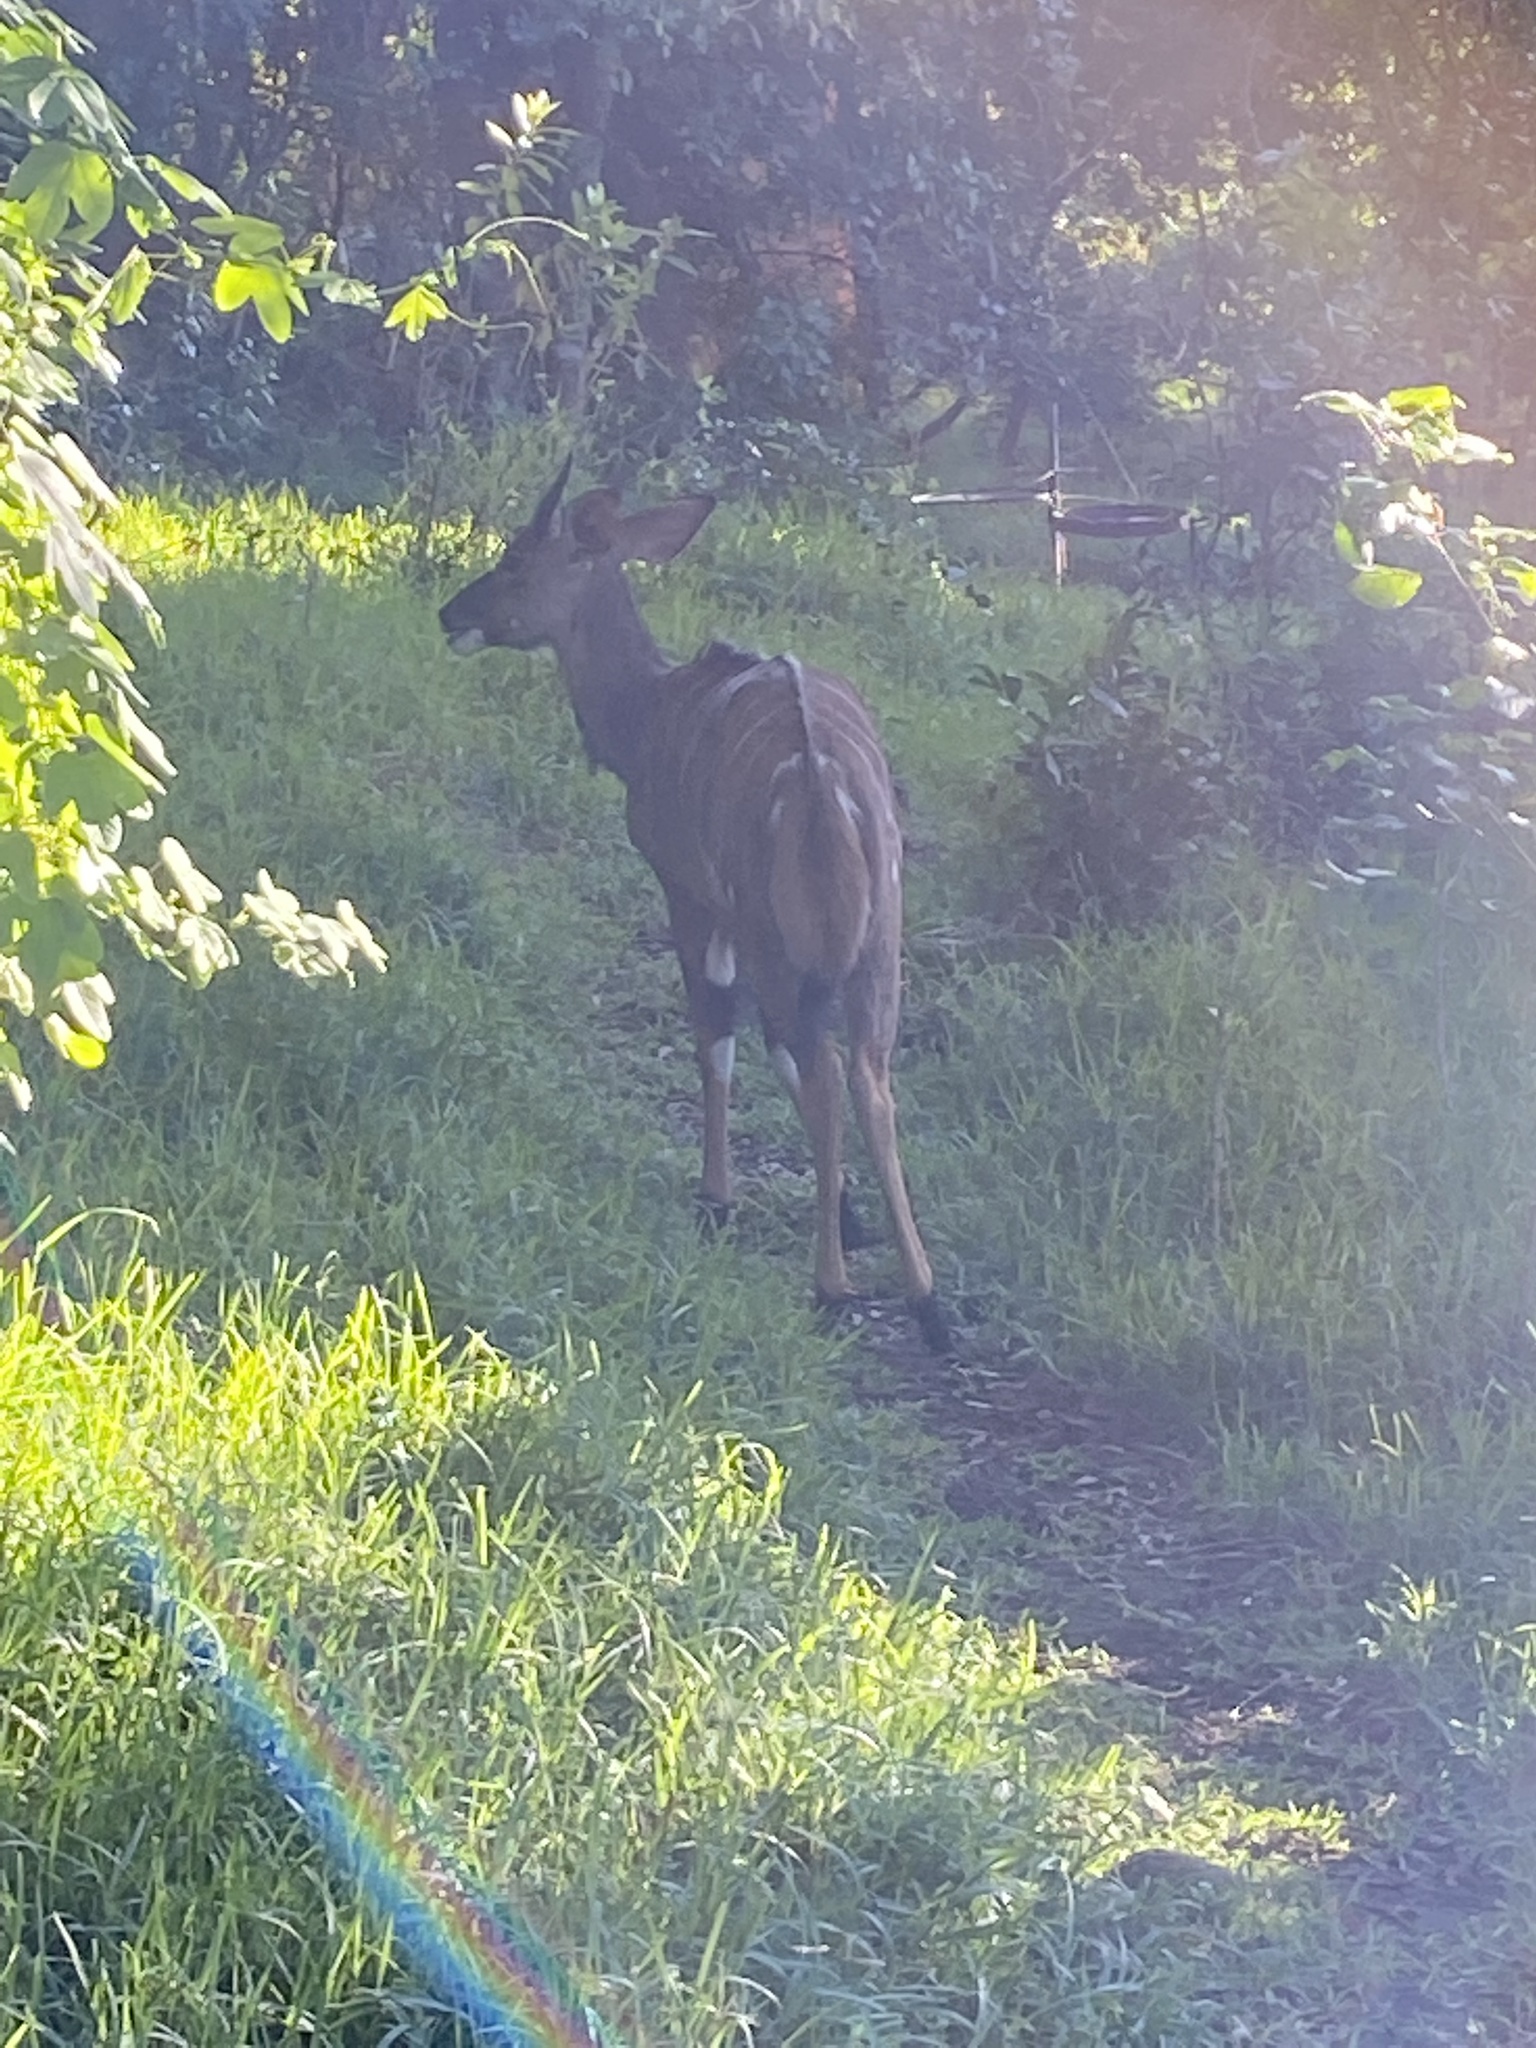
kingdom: Animalia
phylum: Chordata
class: Mammalia
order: Artiodactyla
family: Bovidae
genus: Tragelaphus
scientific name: Tragelaphus angasii
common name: Nyala
